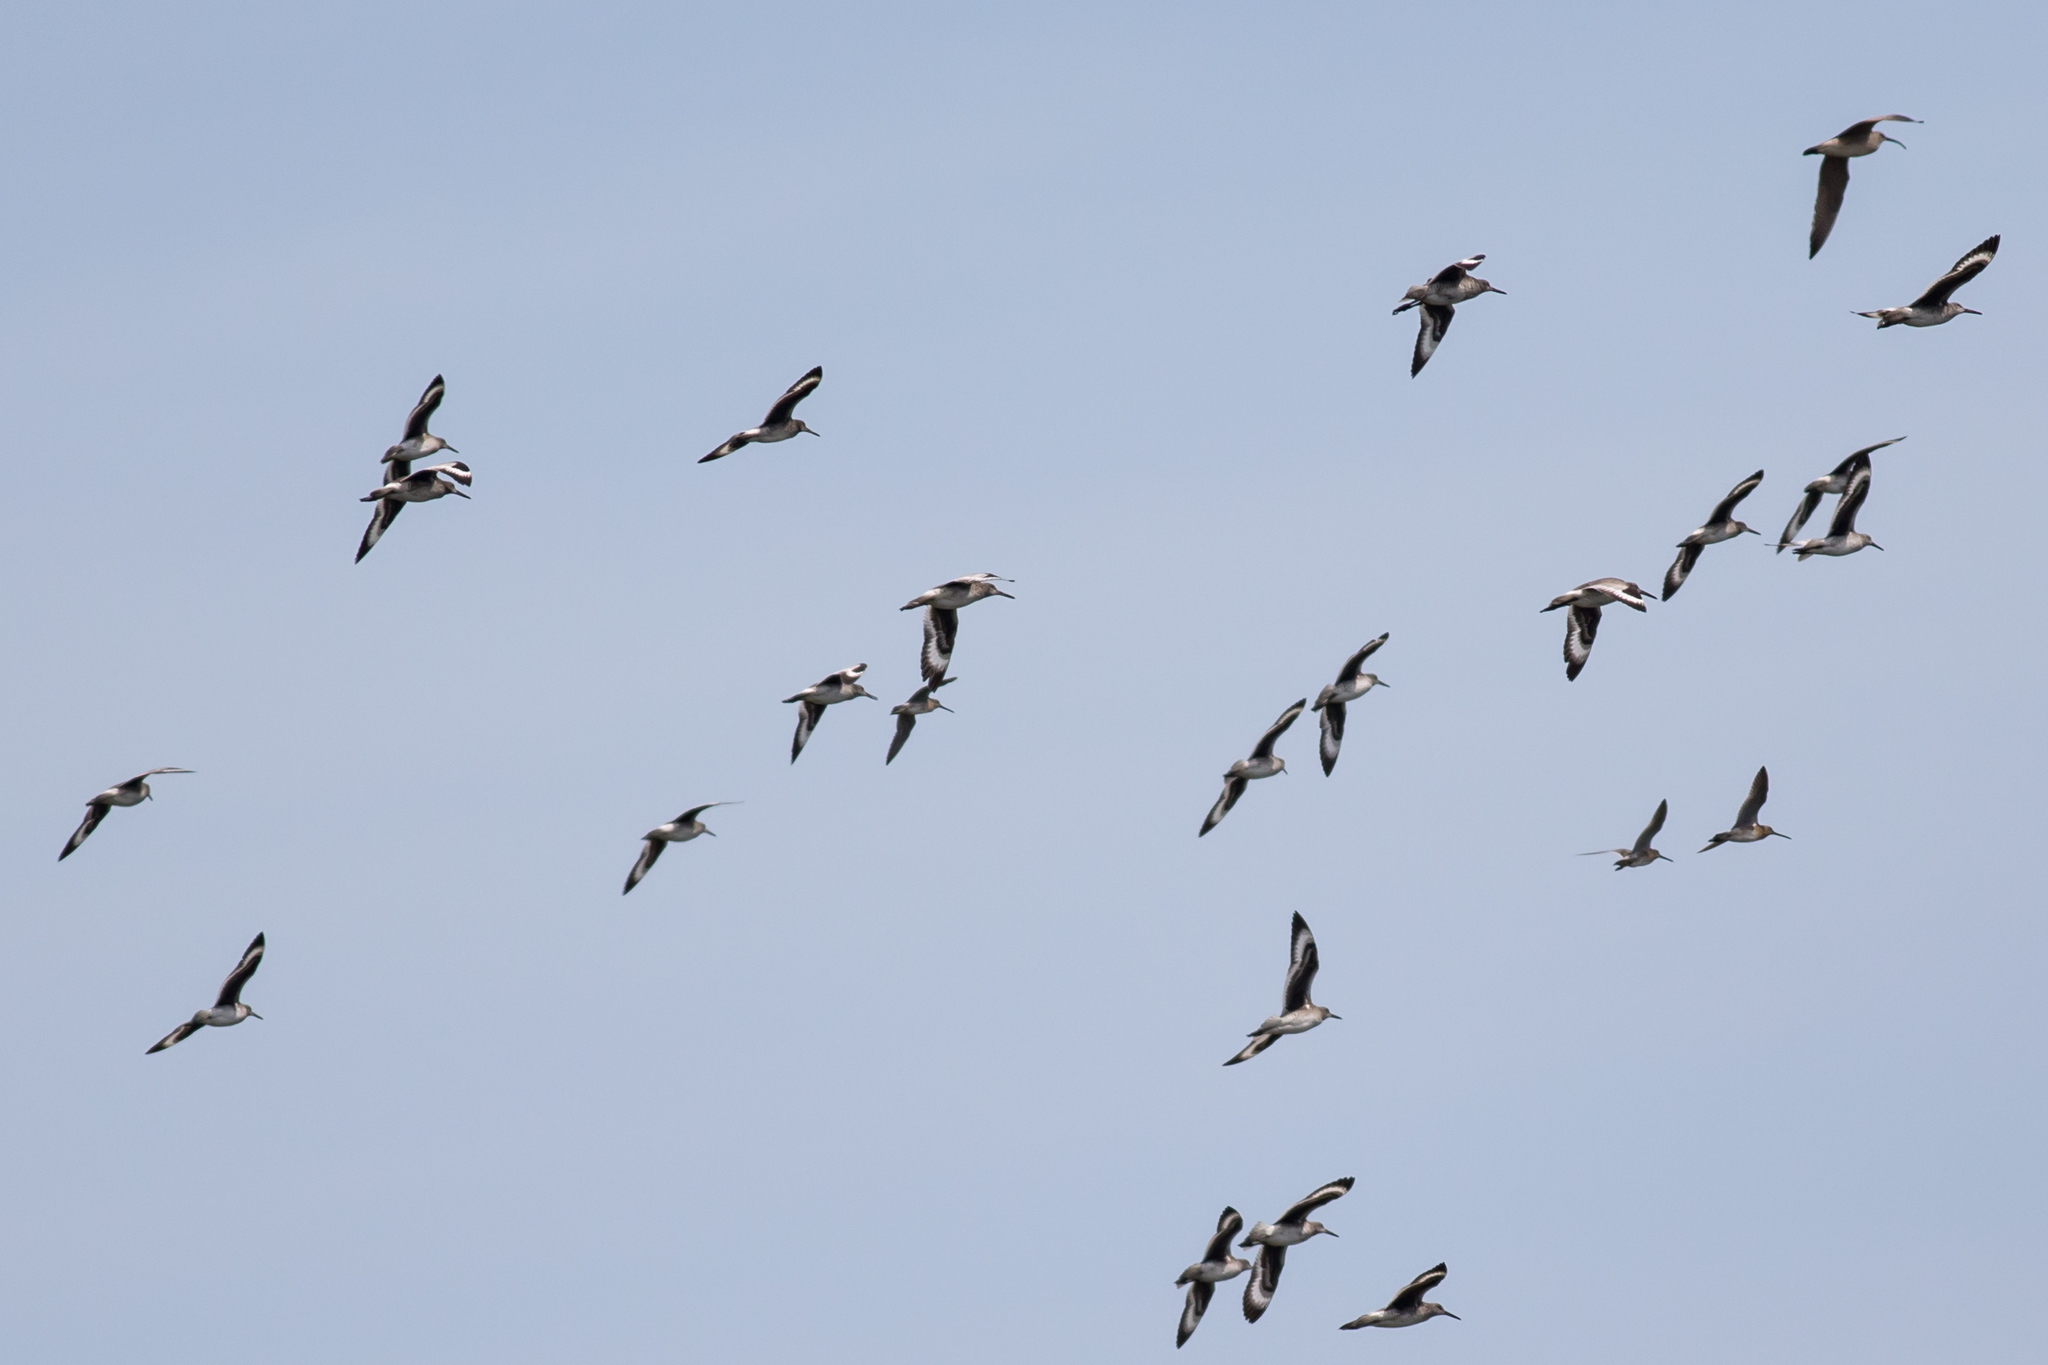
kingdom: Animalia
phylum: Chordata
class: Aves
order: Charadriiformes
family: Scolopacidae
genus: Tringa
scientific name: Tringa semipalmata
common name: Willet
